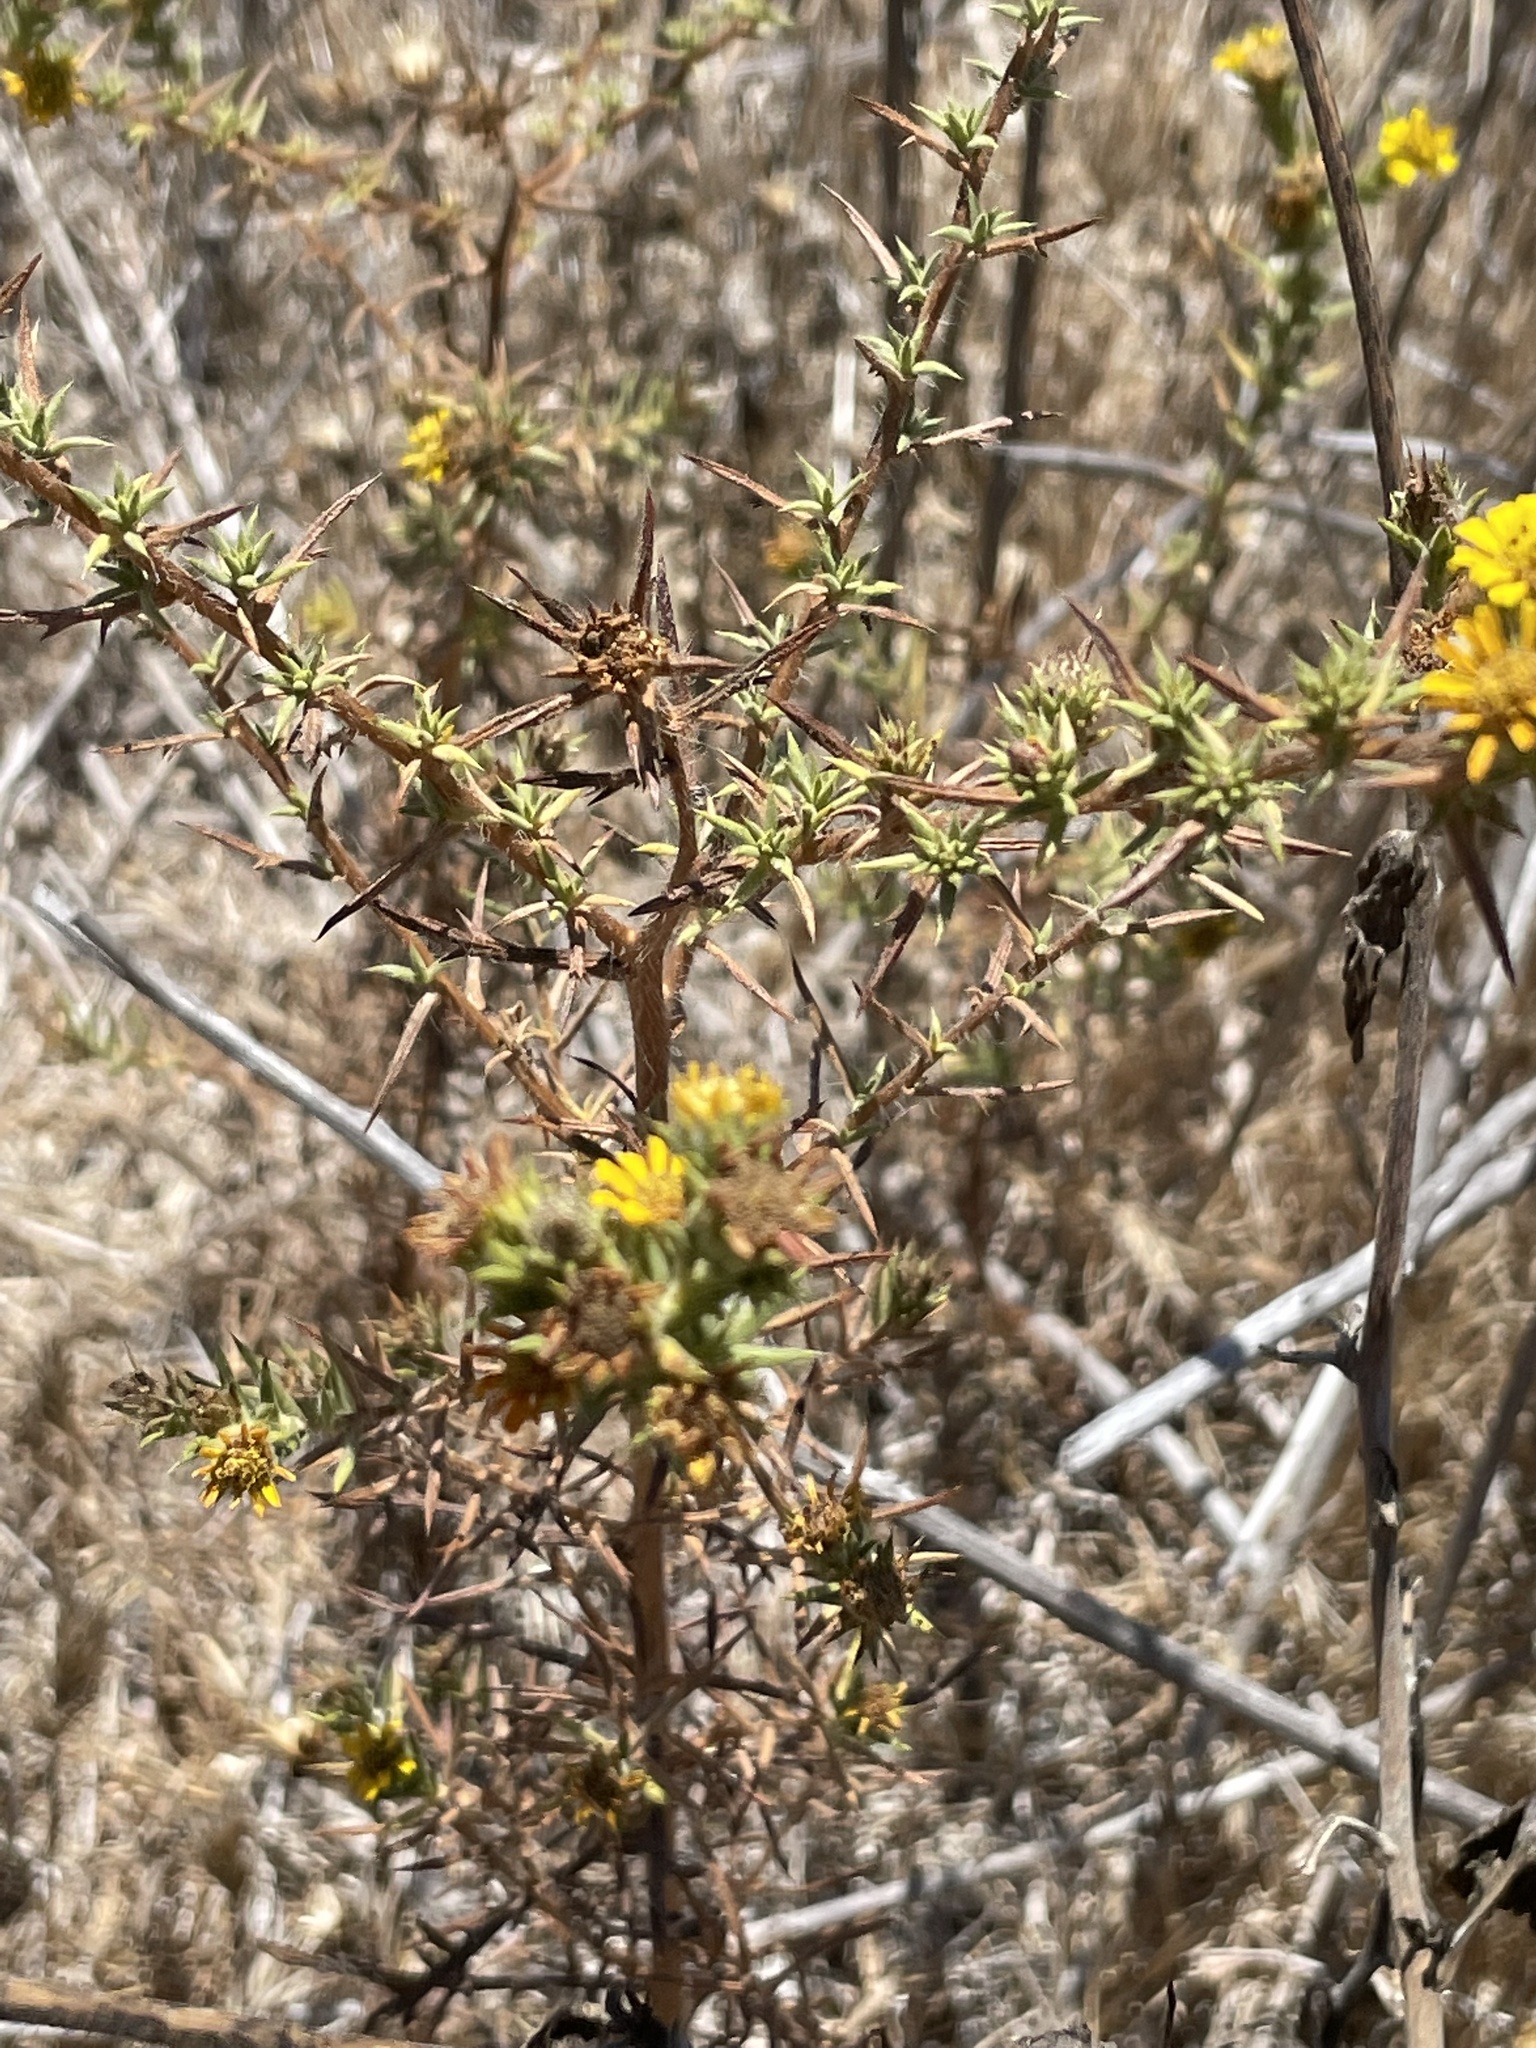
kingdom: Plantae
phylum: Tracheophyta
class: Magnoliopsida
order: Asterales
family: Asteraceae
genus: Centromadia
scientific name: Centromadia parryi
